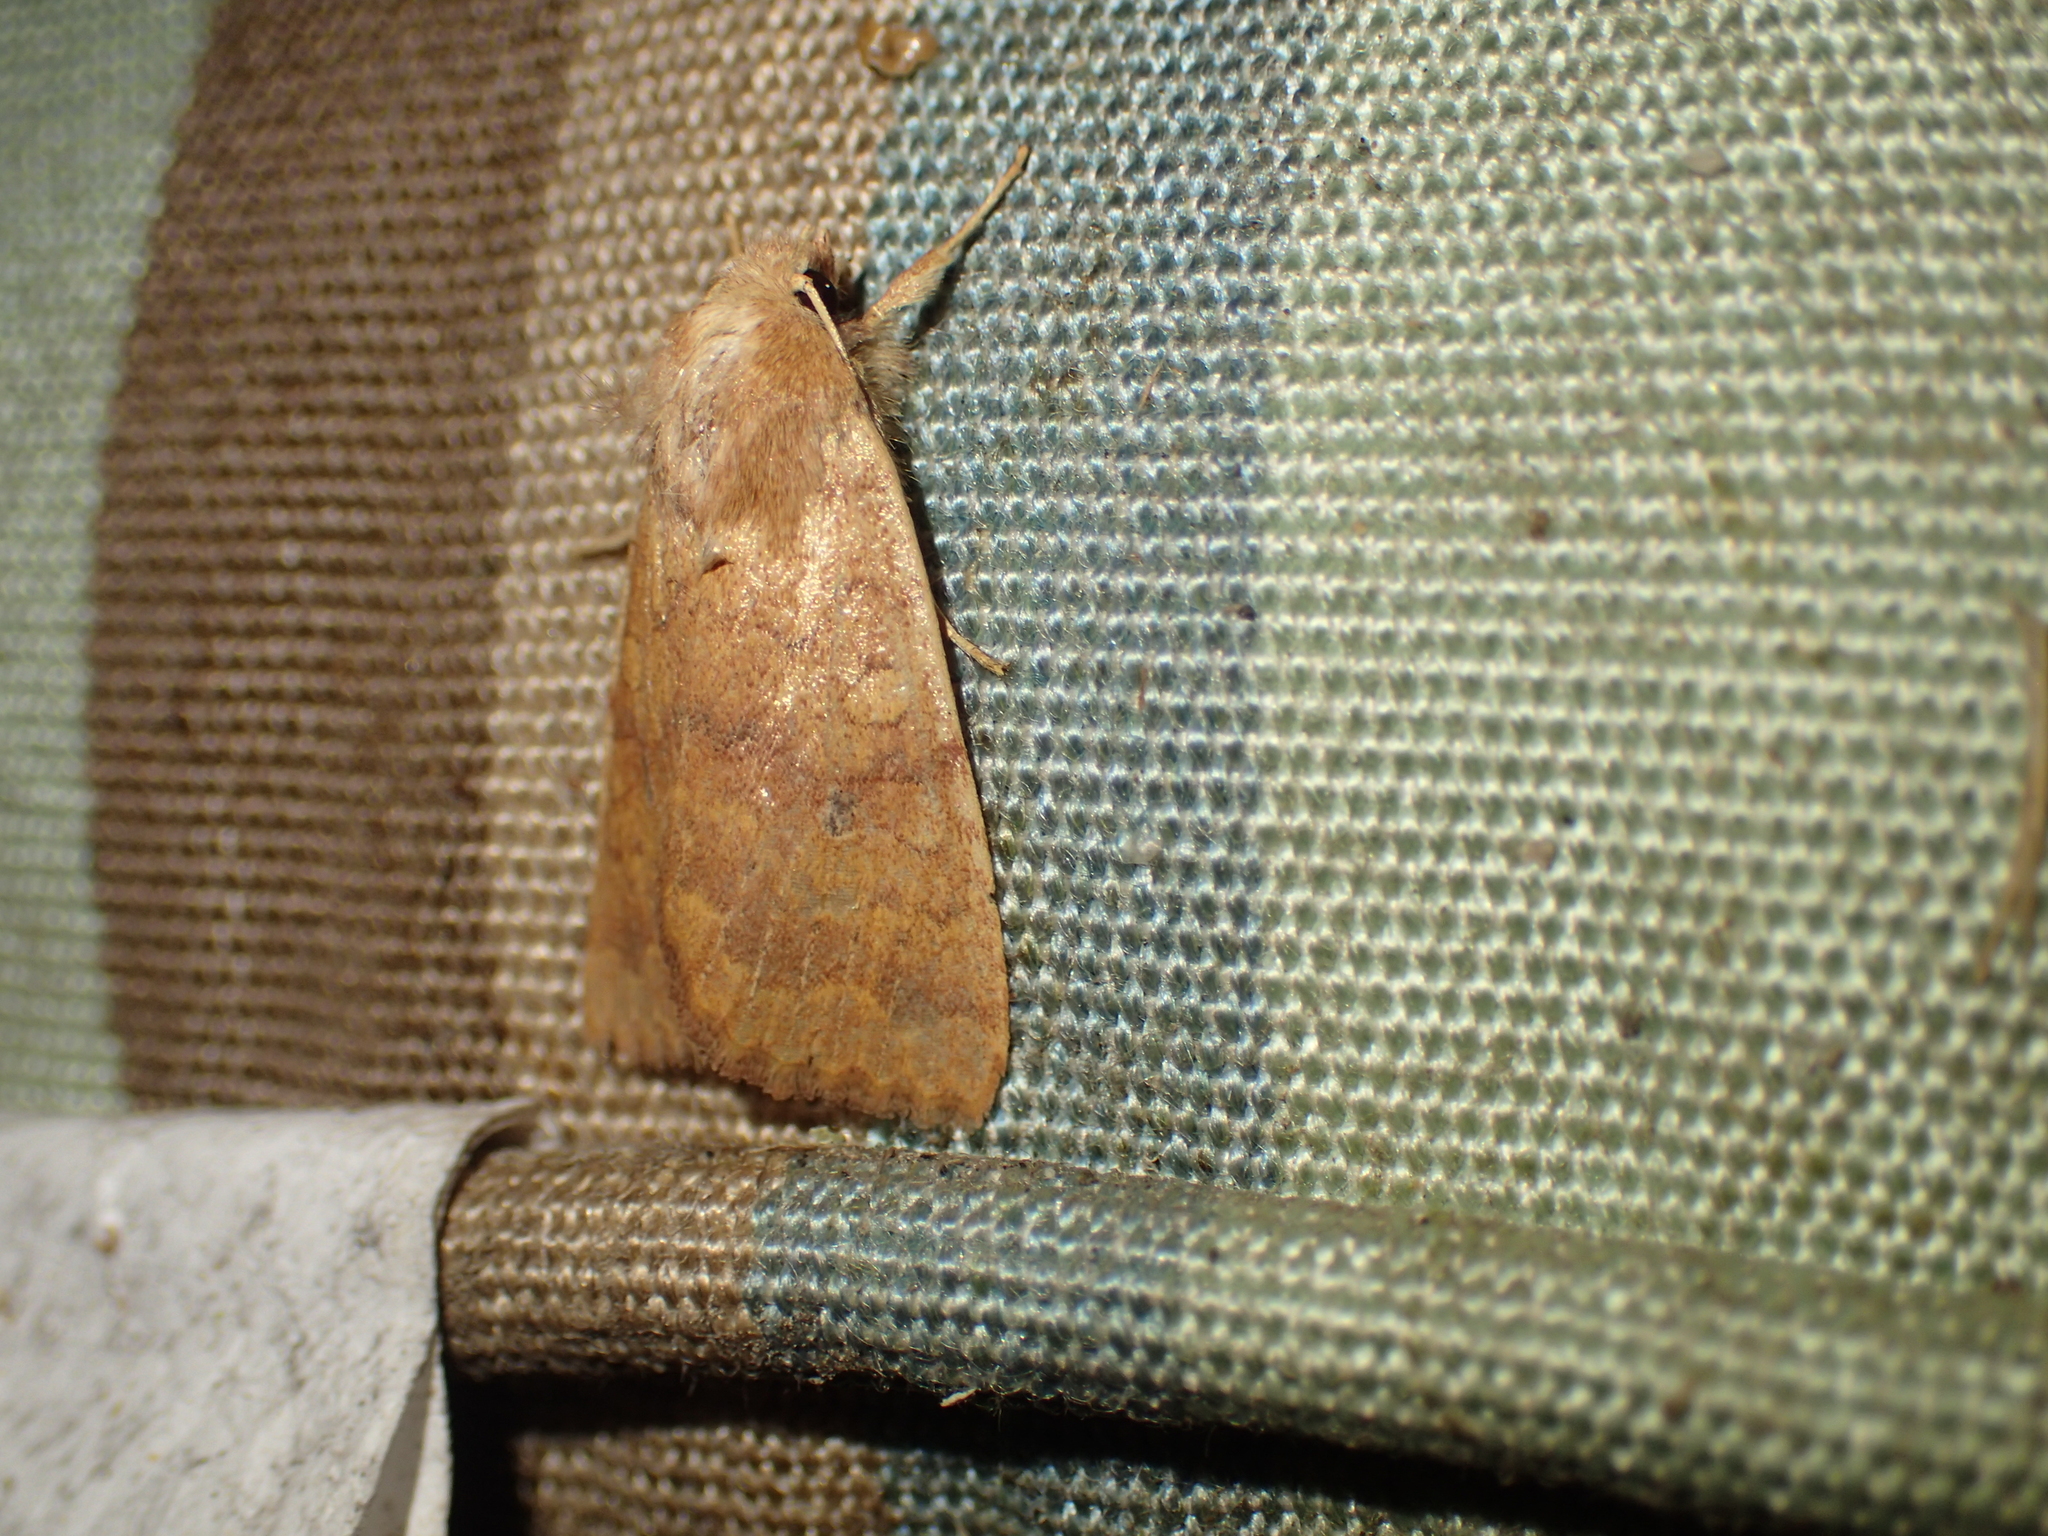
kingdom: Animalia
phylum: Arthropoda
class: Insecta
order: Lepidoptera
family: Noctuidae
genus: Agrochola
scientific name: Agrochola bicolorago
